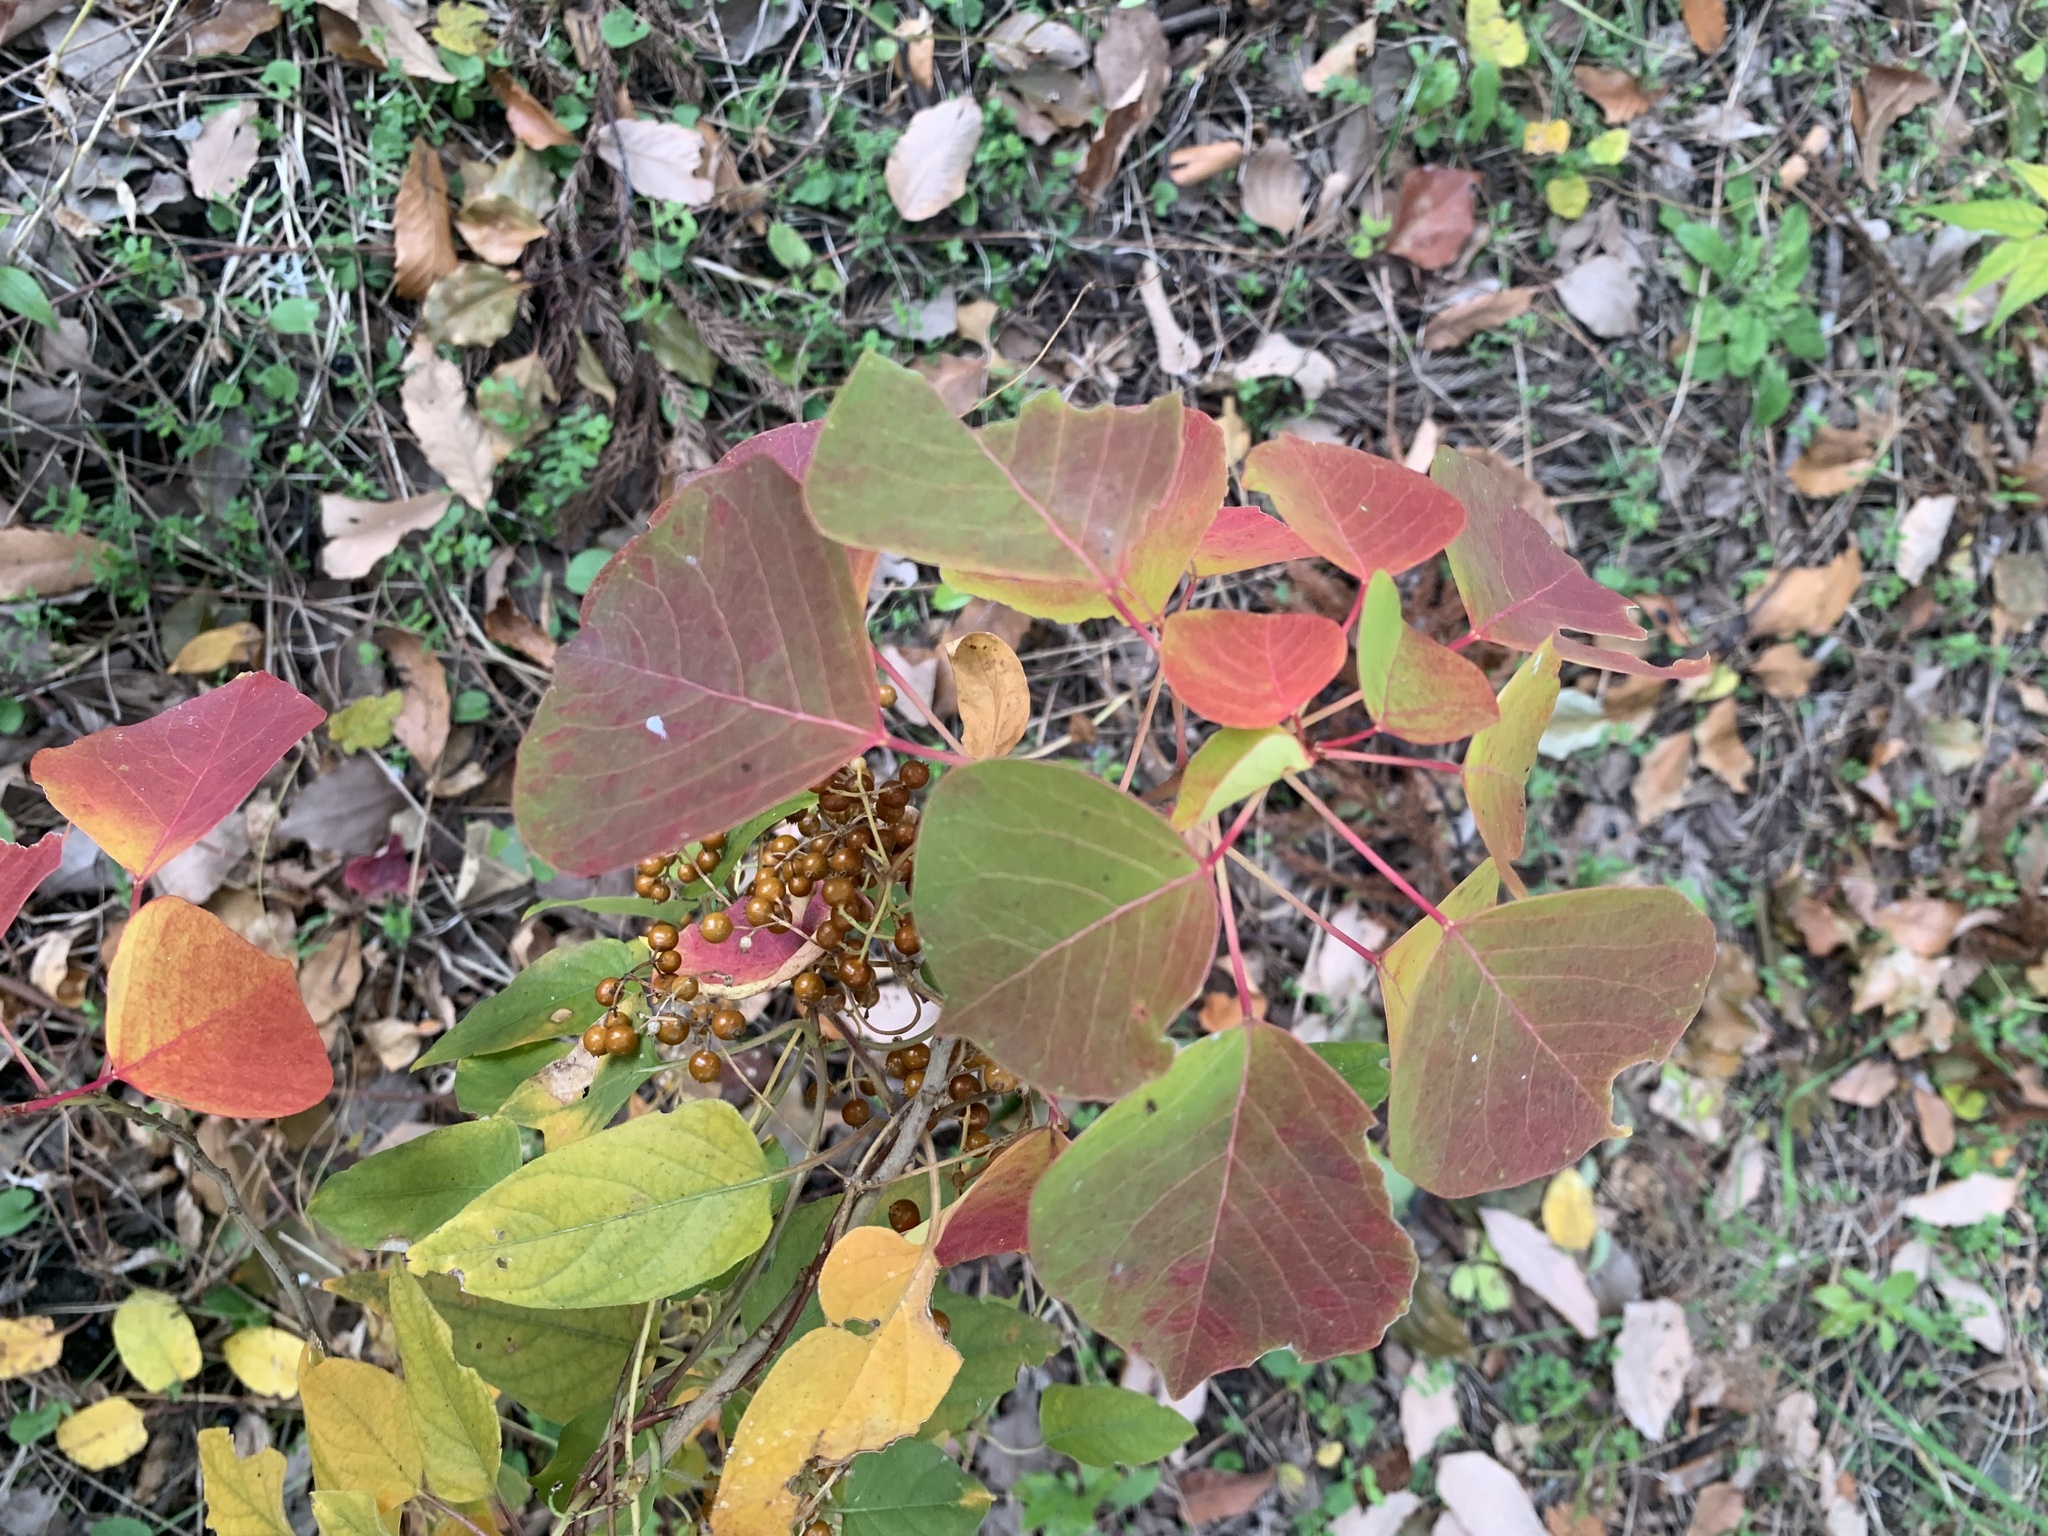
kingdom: Plantae
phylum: Tracheophyta
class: Magnoliopsida
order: Malpighiales
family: Euphorbiaceae
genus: Triadica
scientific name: Triadica sebifera
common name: Chinese tallow
